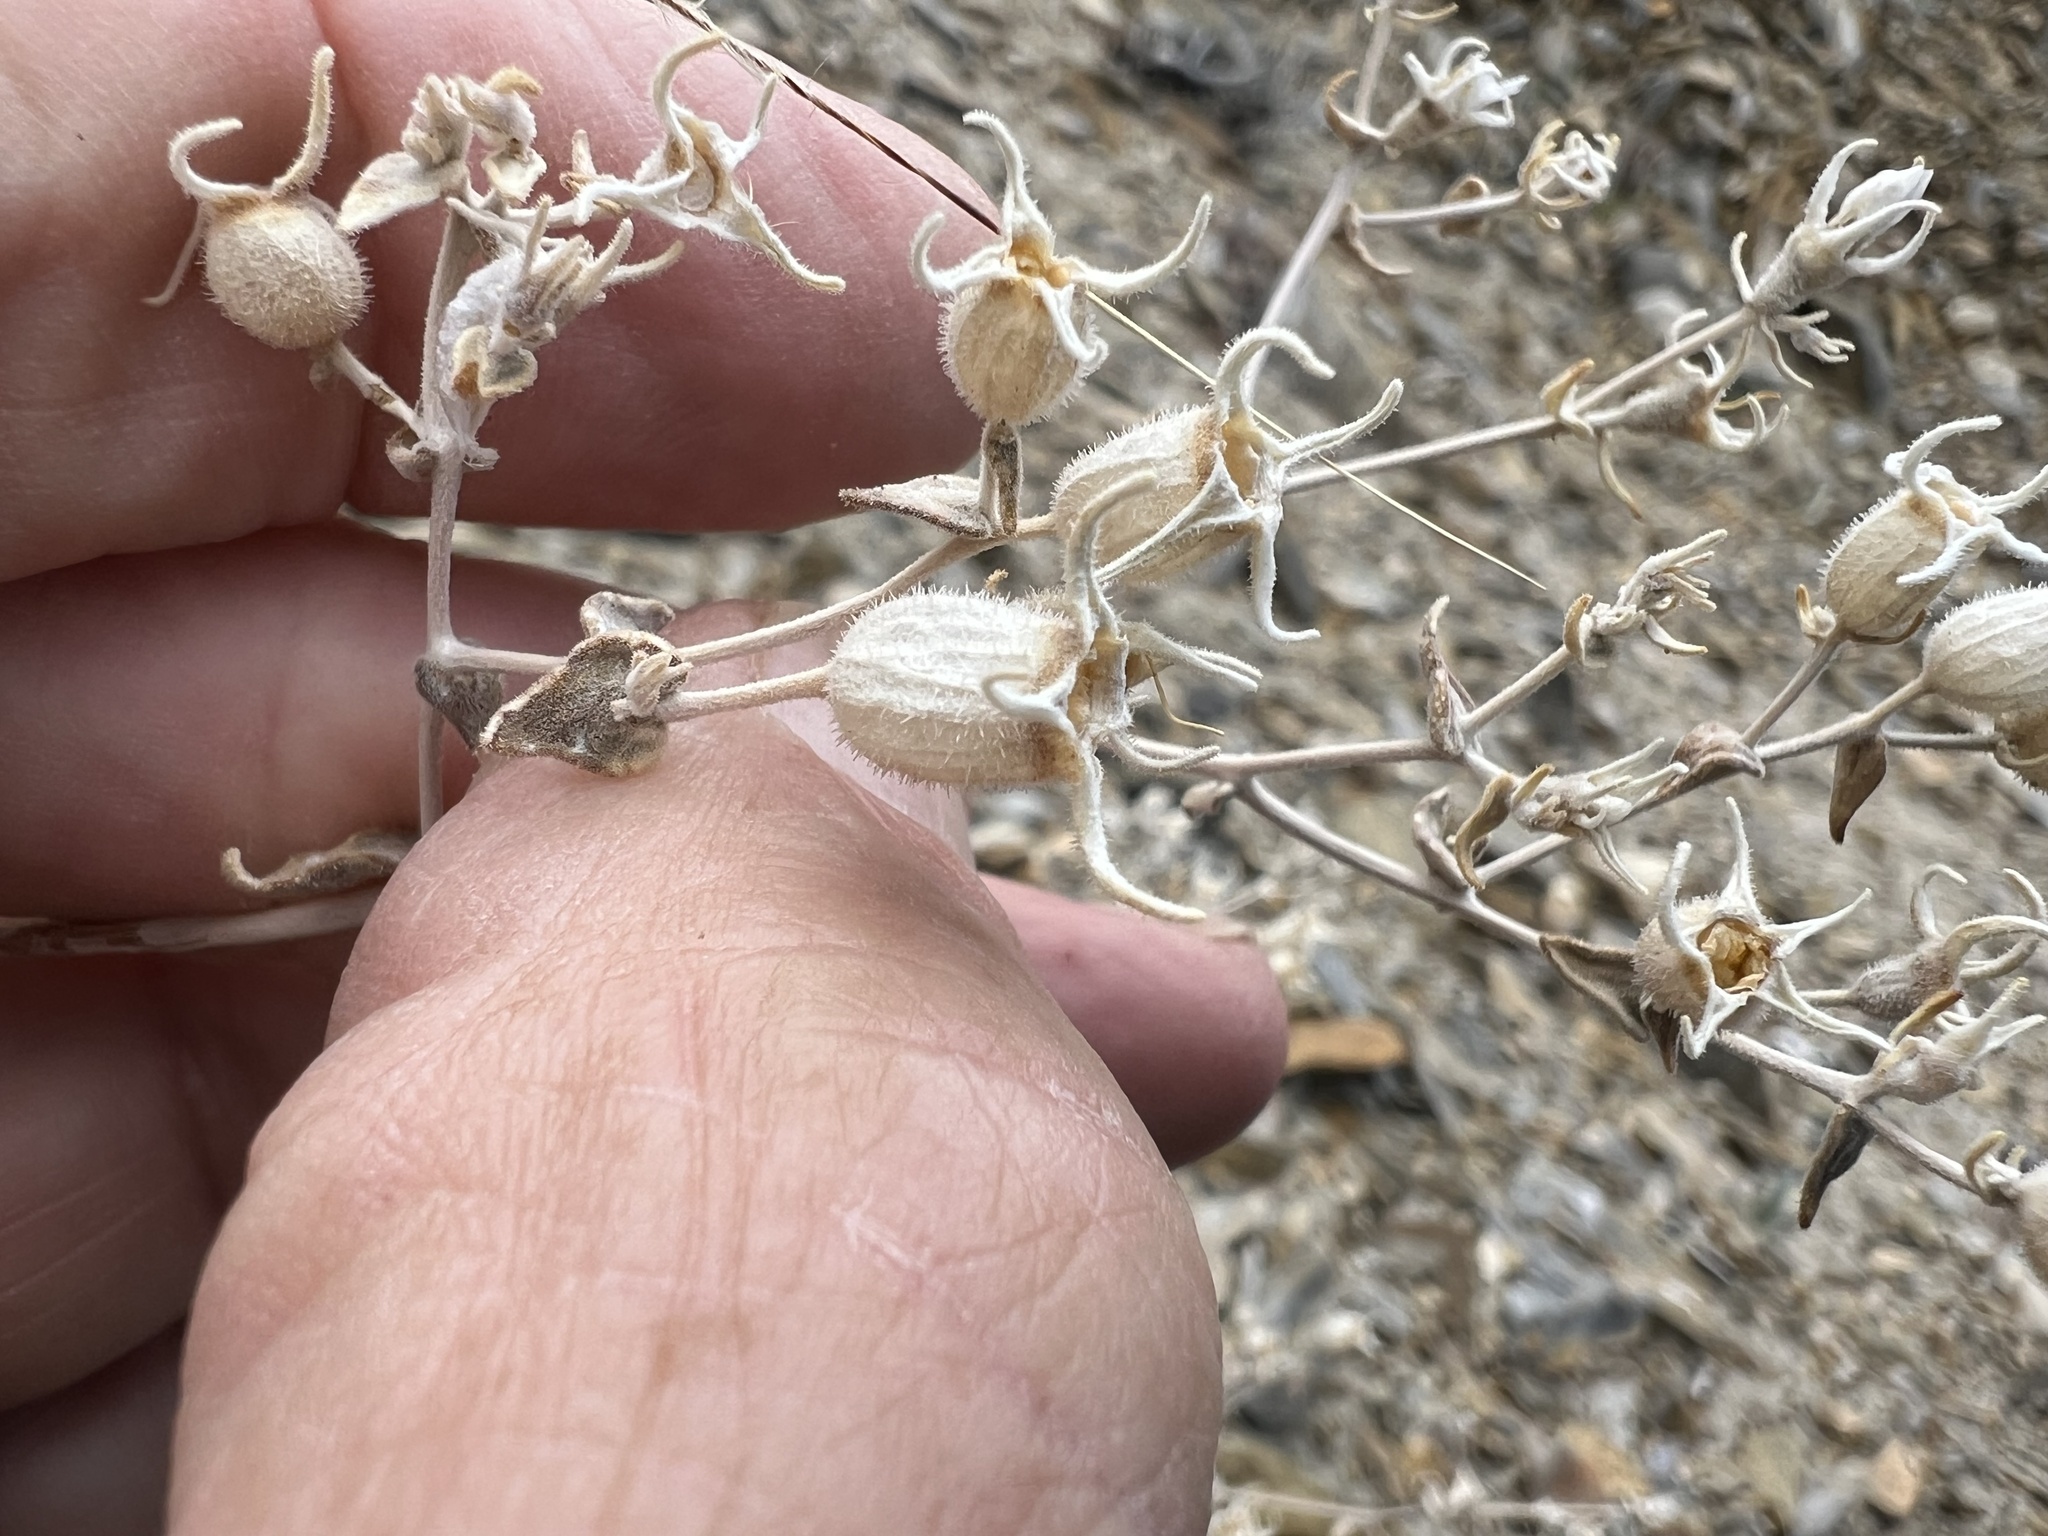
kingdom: Plantae
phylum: Tracheophyta
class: Magnoliopsida
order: Cornales
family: Loasaceae
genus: Mentzelia
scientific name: Mentzelia oreophila
